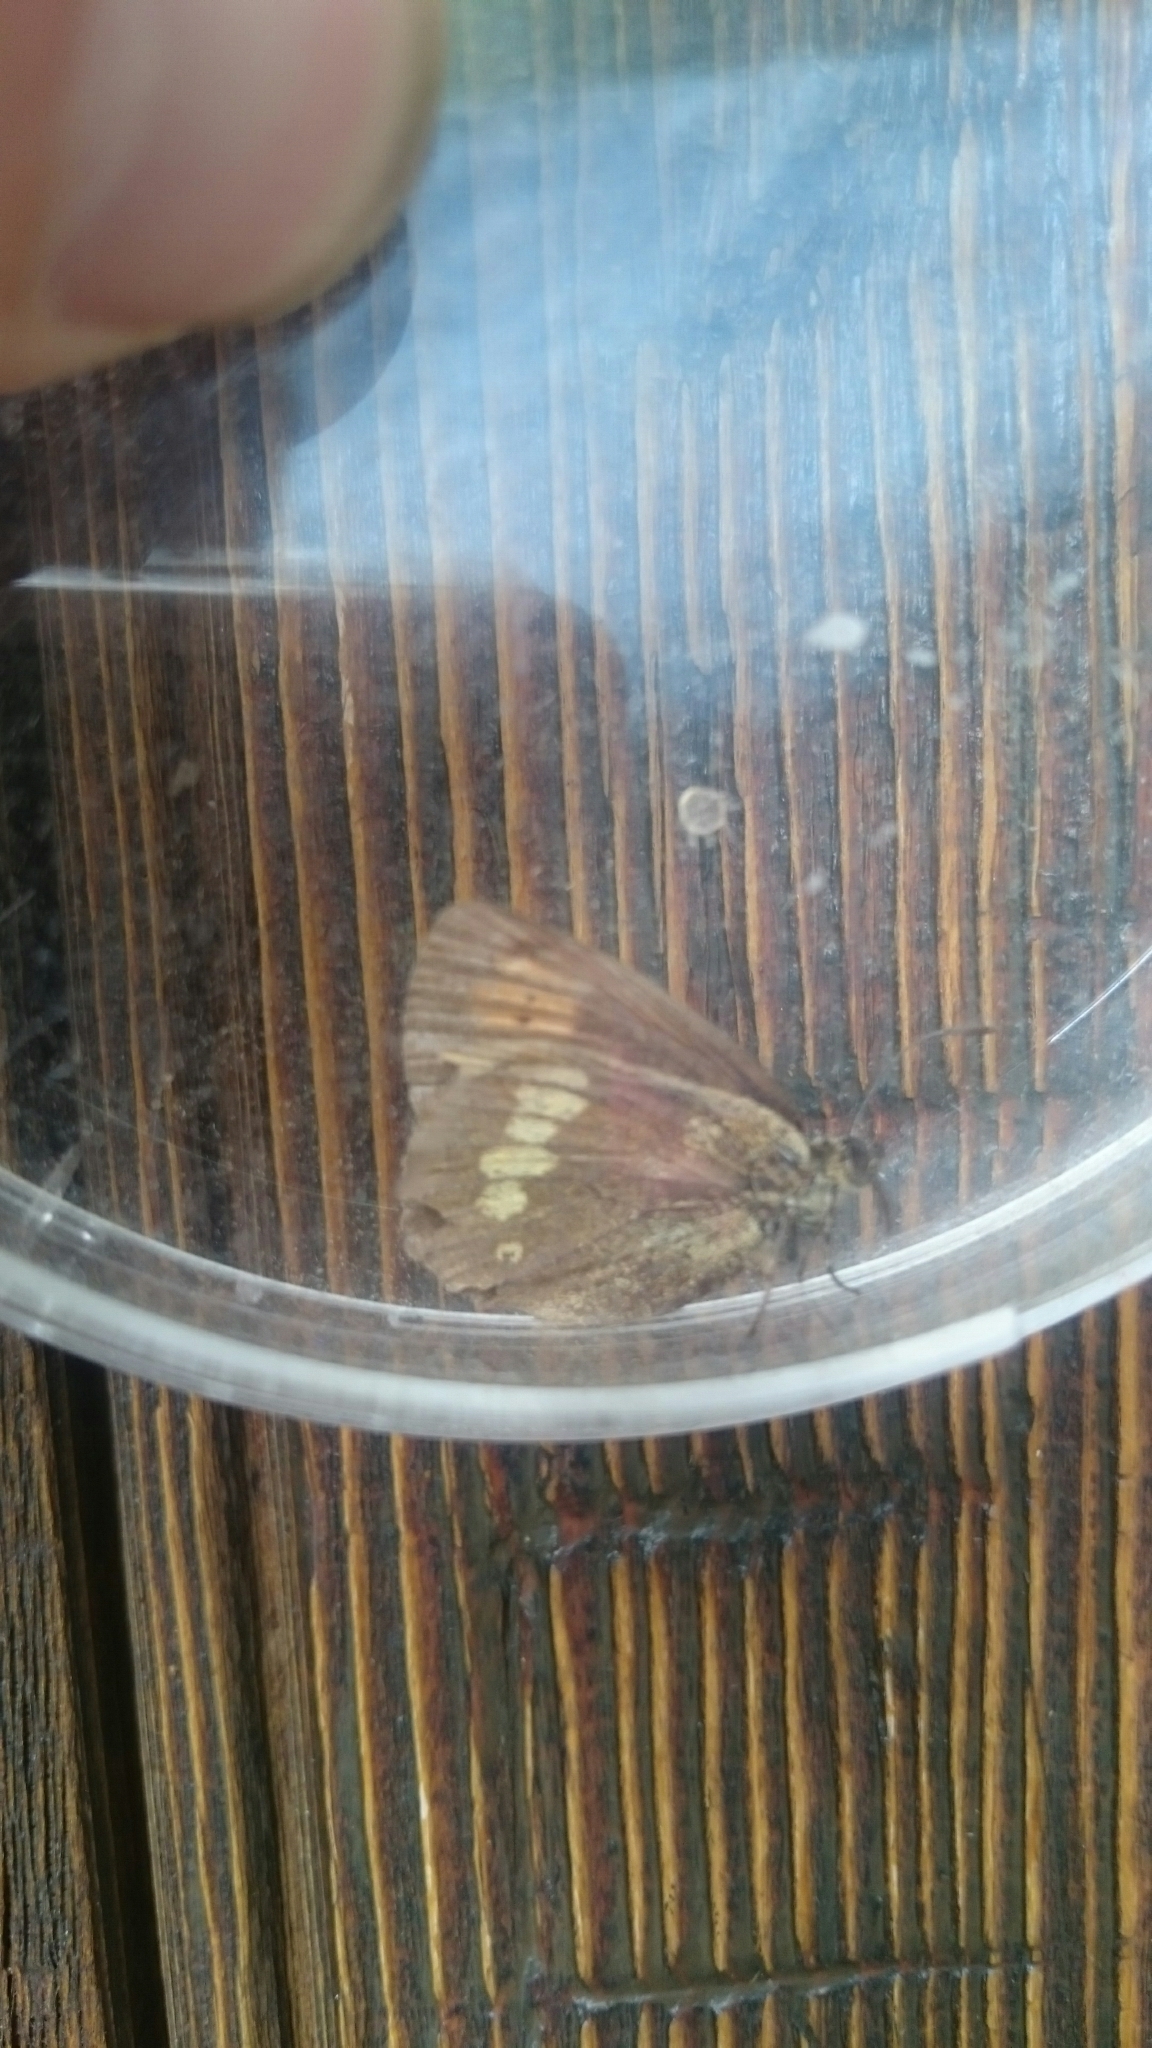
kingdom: Animalia
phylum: Arthropoda
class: Insecta
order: Lepidoptera
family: Nymphalidae
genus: Erebia
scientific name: Erebia manto
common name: Yellow-spotted ringlet
